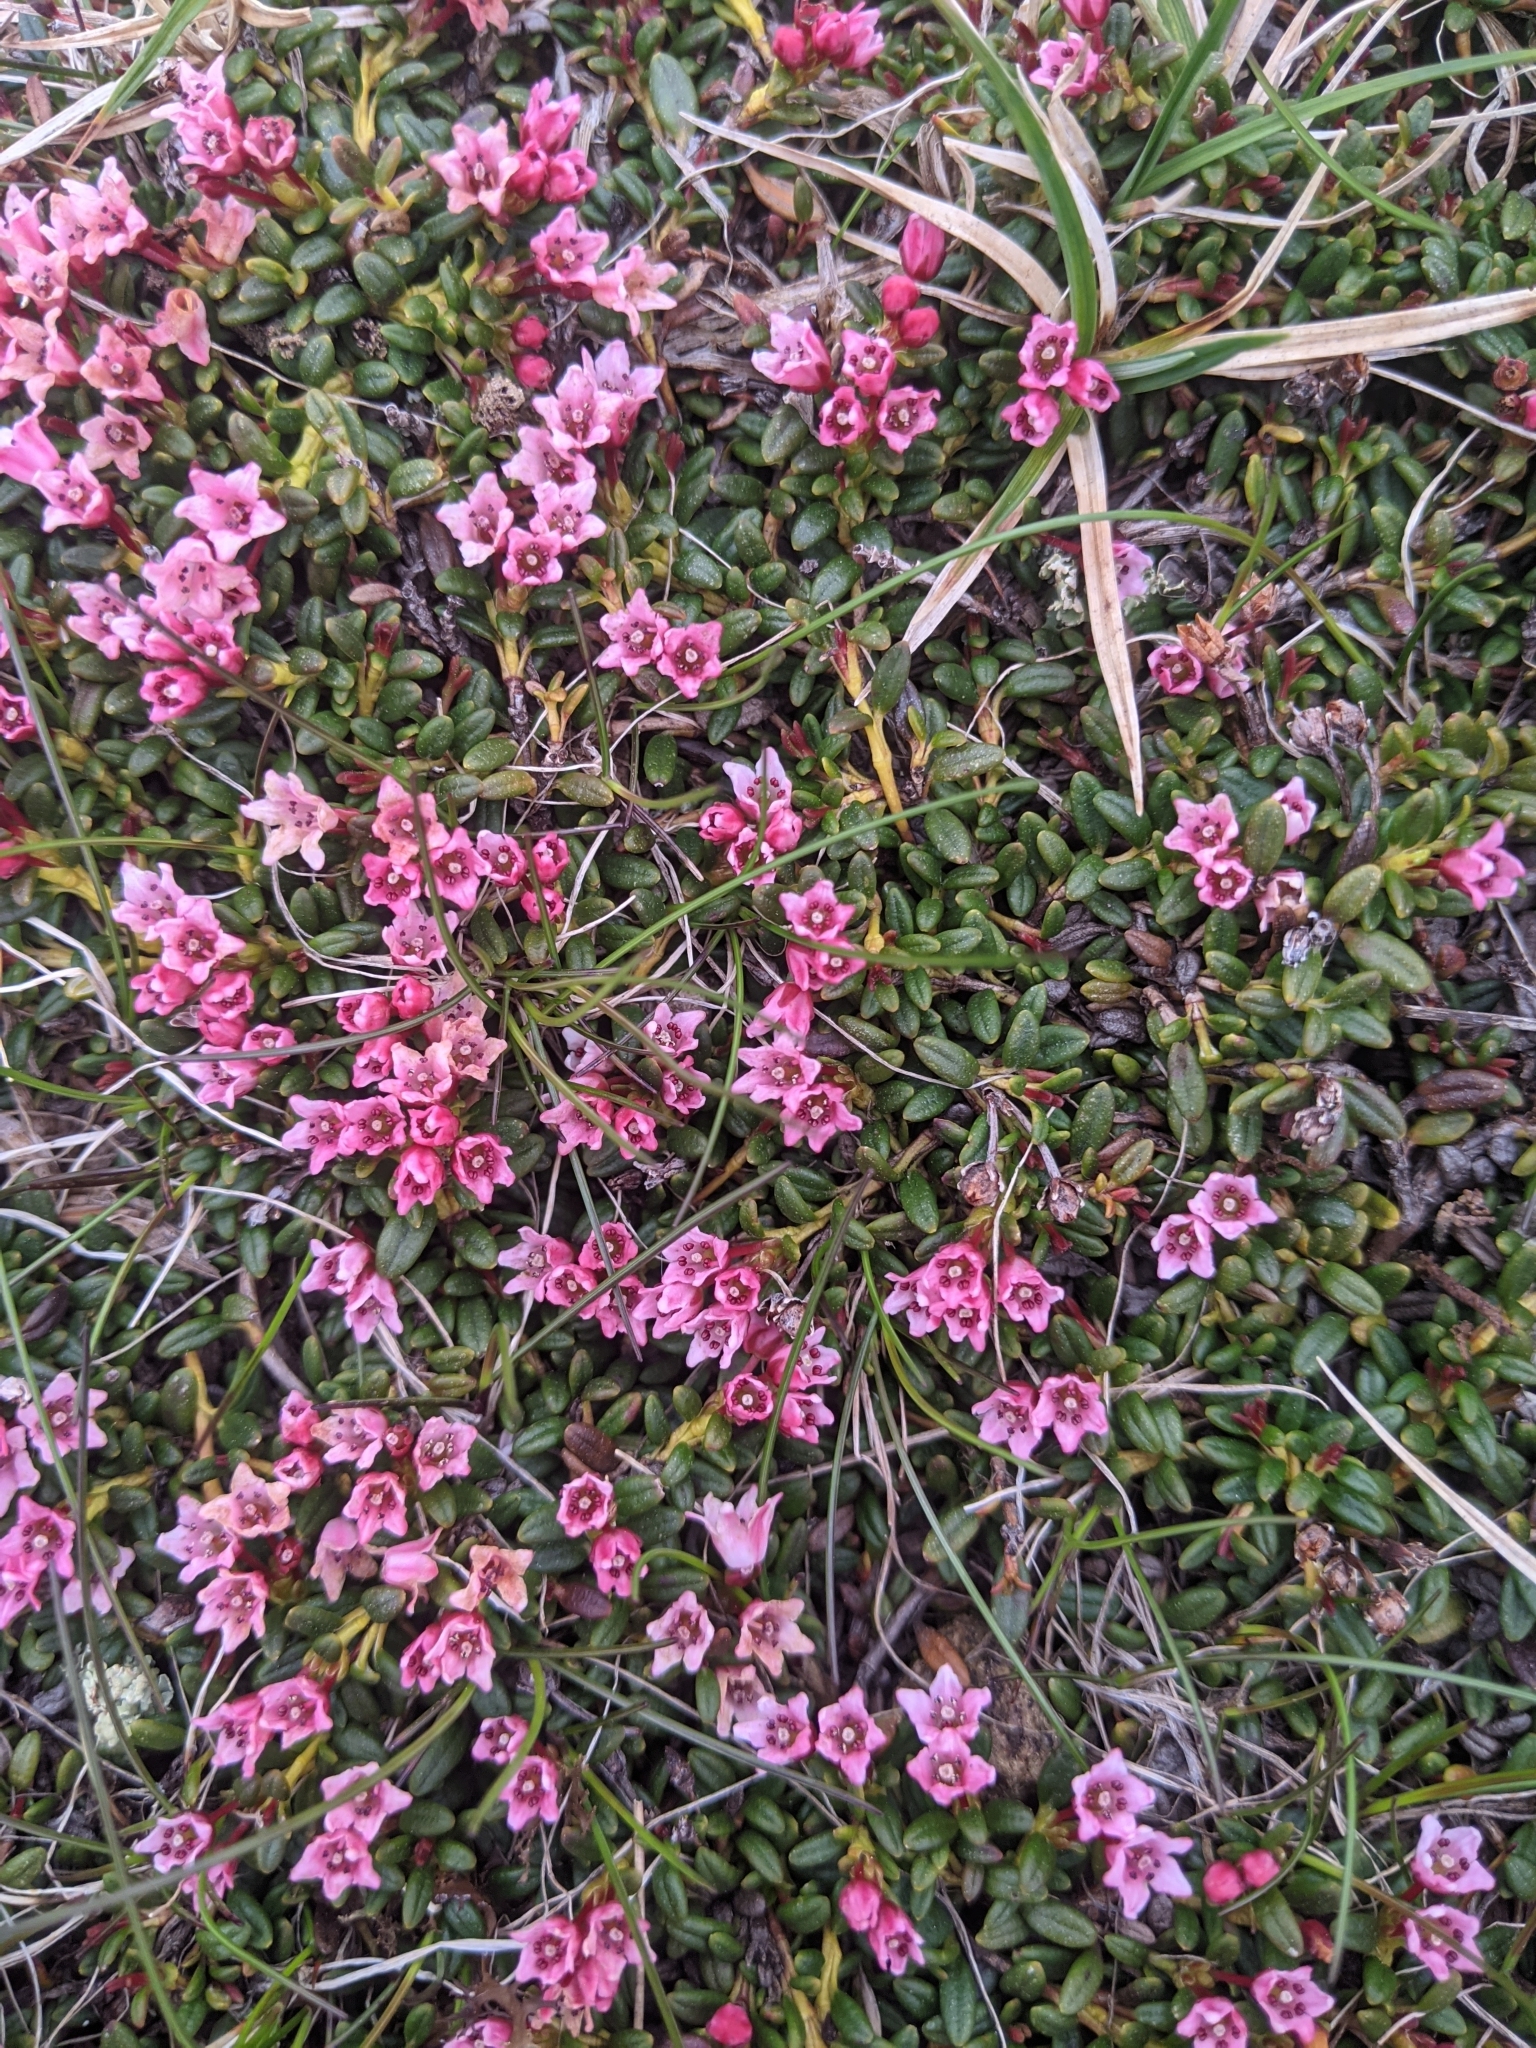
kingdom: Plantae
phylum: Tracheophyta
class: Magnoliopsida
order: Ericales
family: Ericaceae
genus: Kalmia
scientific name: Kalmia procumbens
